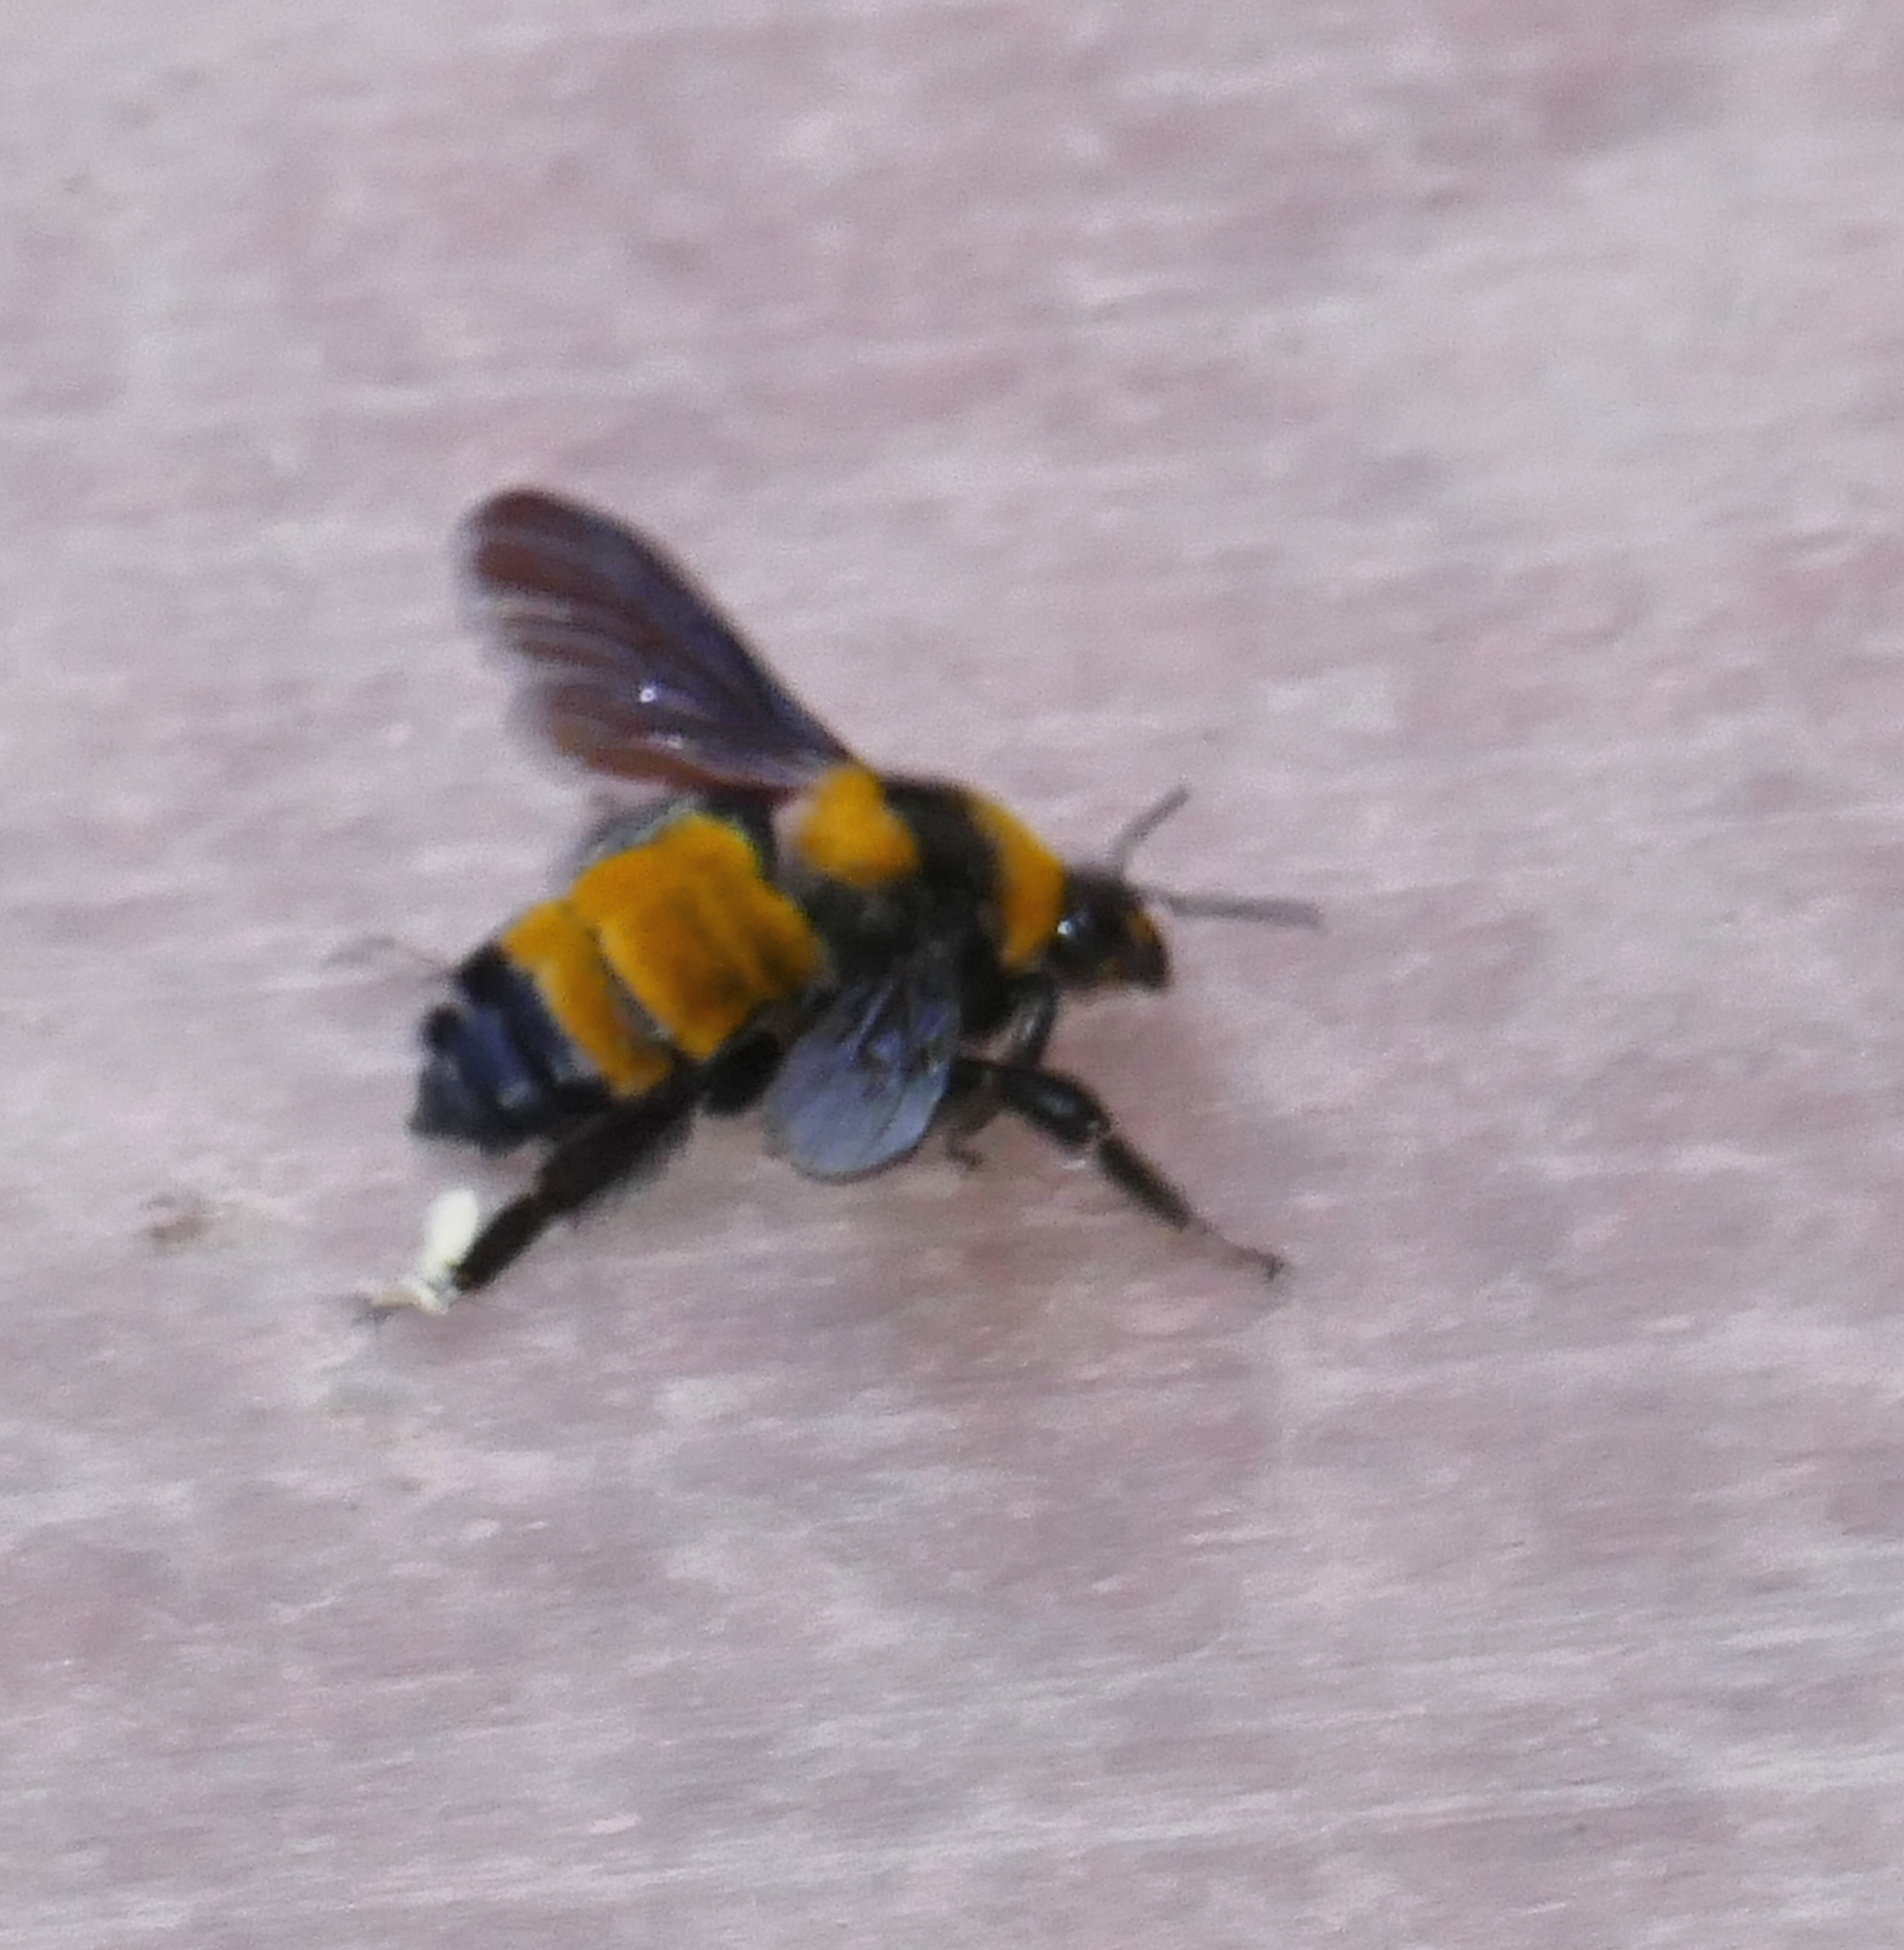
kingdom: Animalia
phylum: Arthropoda
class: Insecta
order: Hymenoptera
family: Apidae
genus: Bombus
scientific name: Bombus sonorus
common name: Sonoran bumble bee
